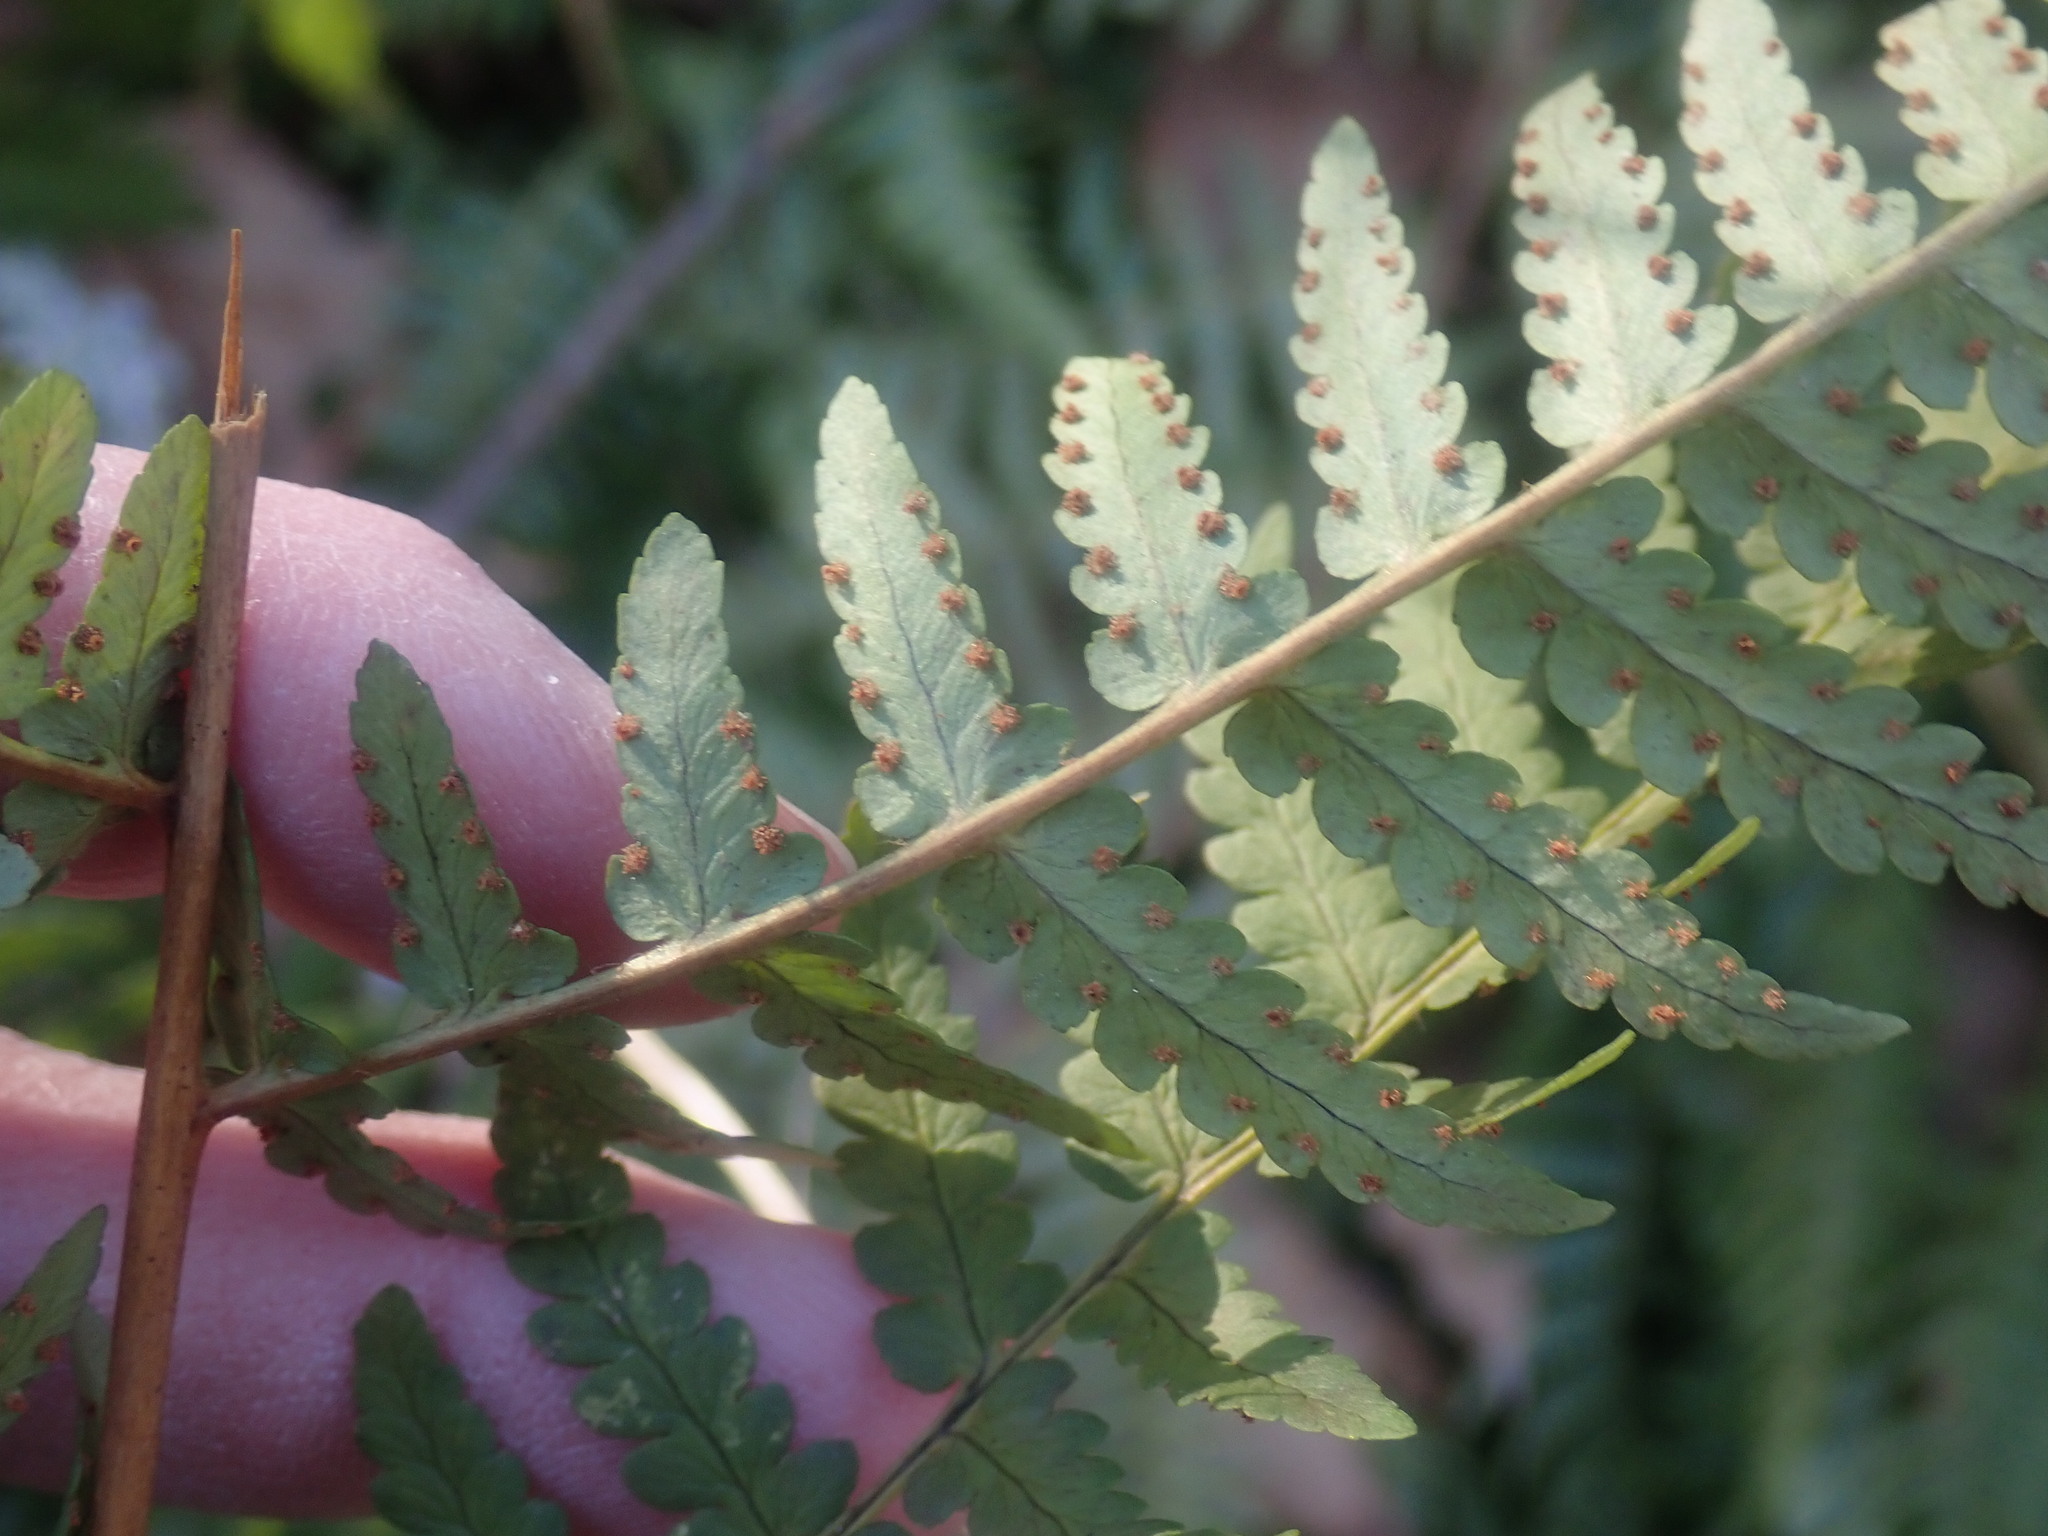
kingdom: Plantae
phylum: Tracheophyta
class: Polypodiopsida
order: Polypodiales
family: Dryopteridaceae
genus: Dryopteris
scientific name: Dryopteris marginalis
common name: Marginal wood fern
